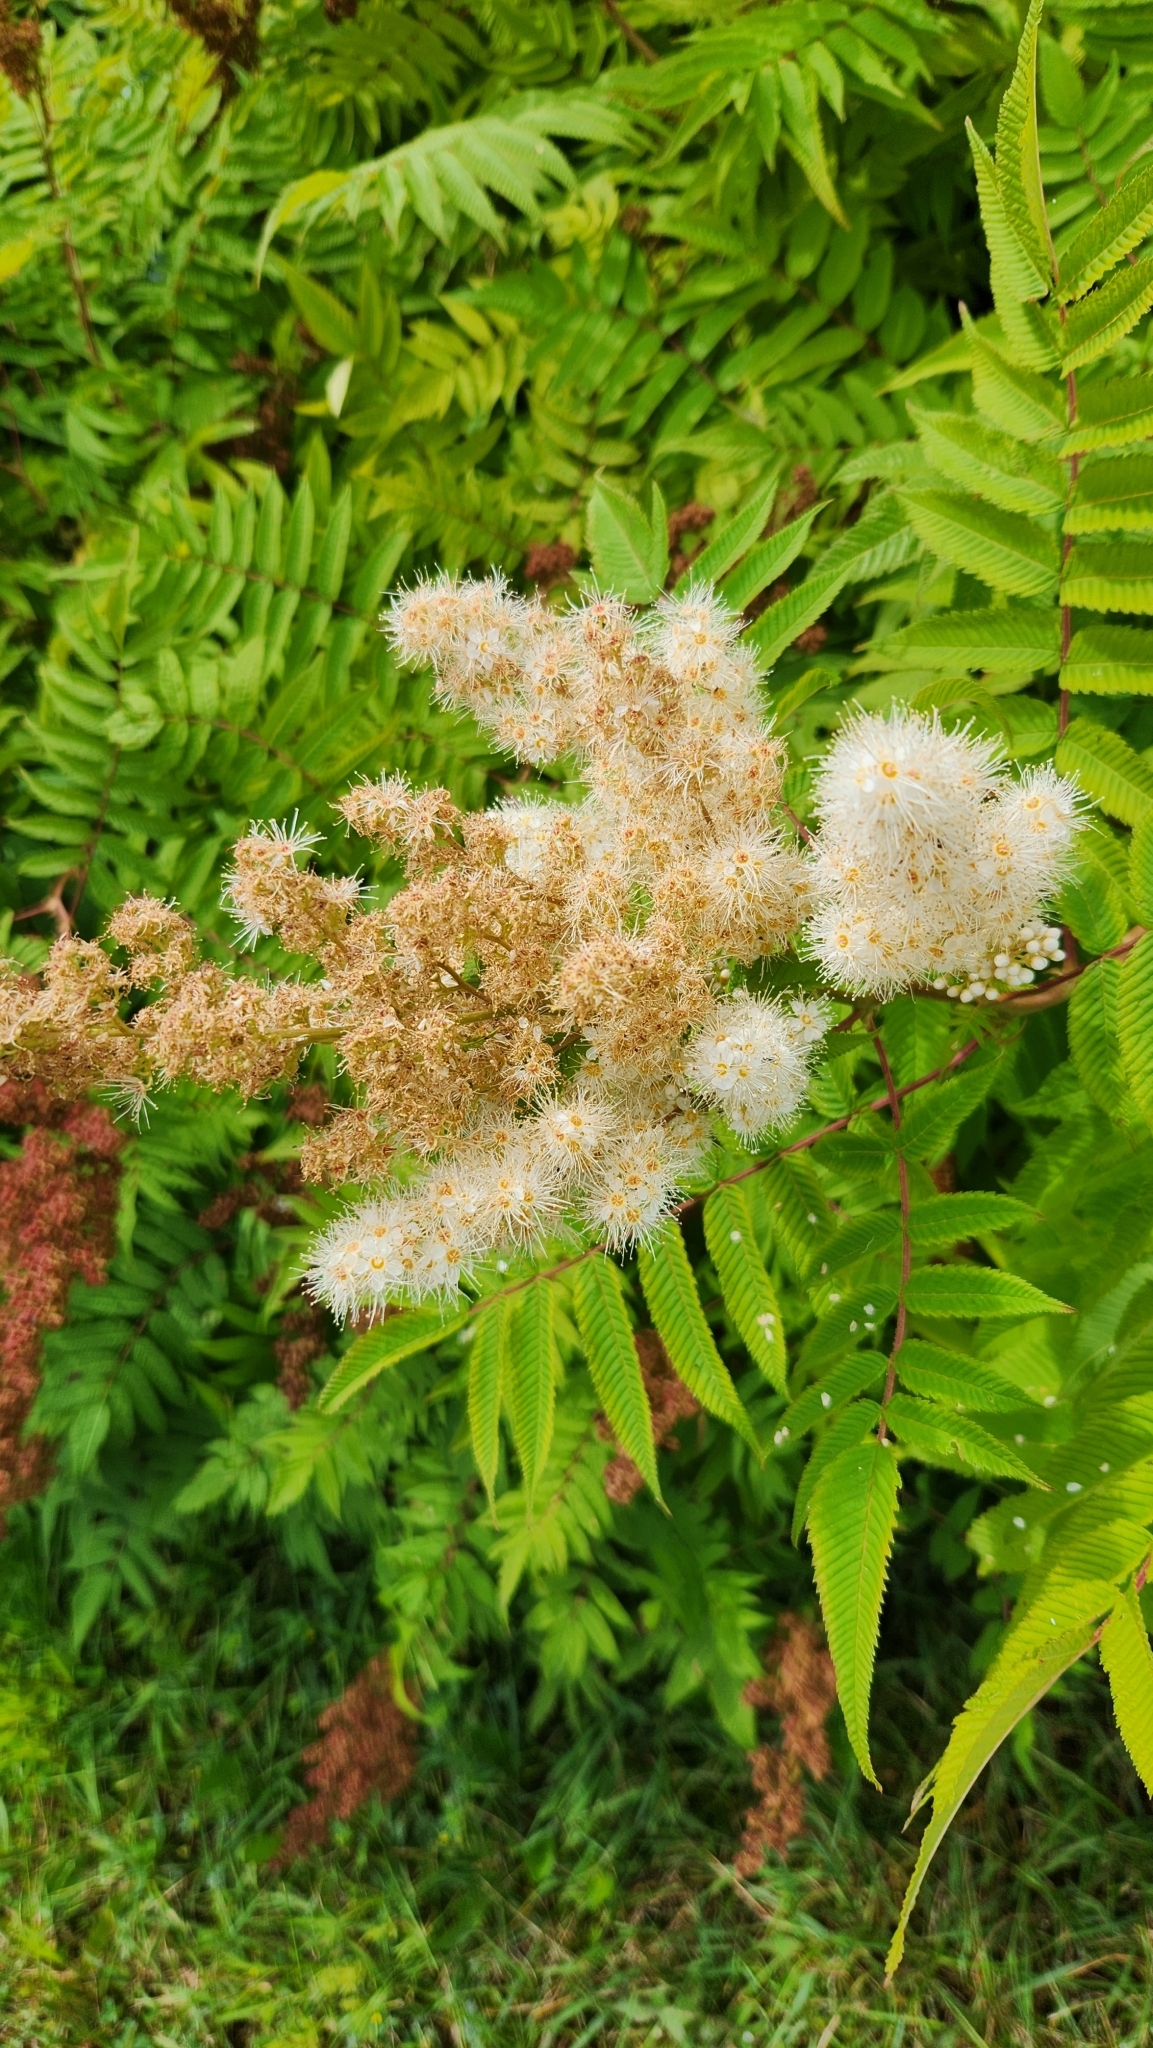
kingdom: Plantae
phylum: Tracheophyta
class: Magnoliopsida
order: Rosales
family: Rosaceae
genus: Sorbaria
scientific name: Sorbaria sorbifolia
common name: False spiraea
